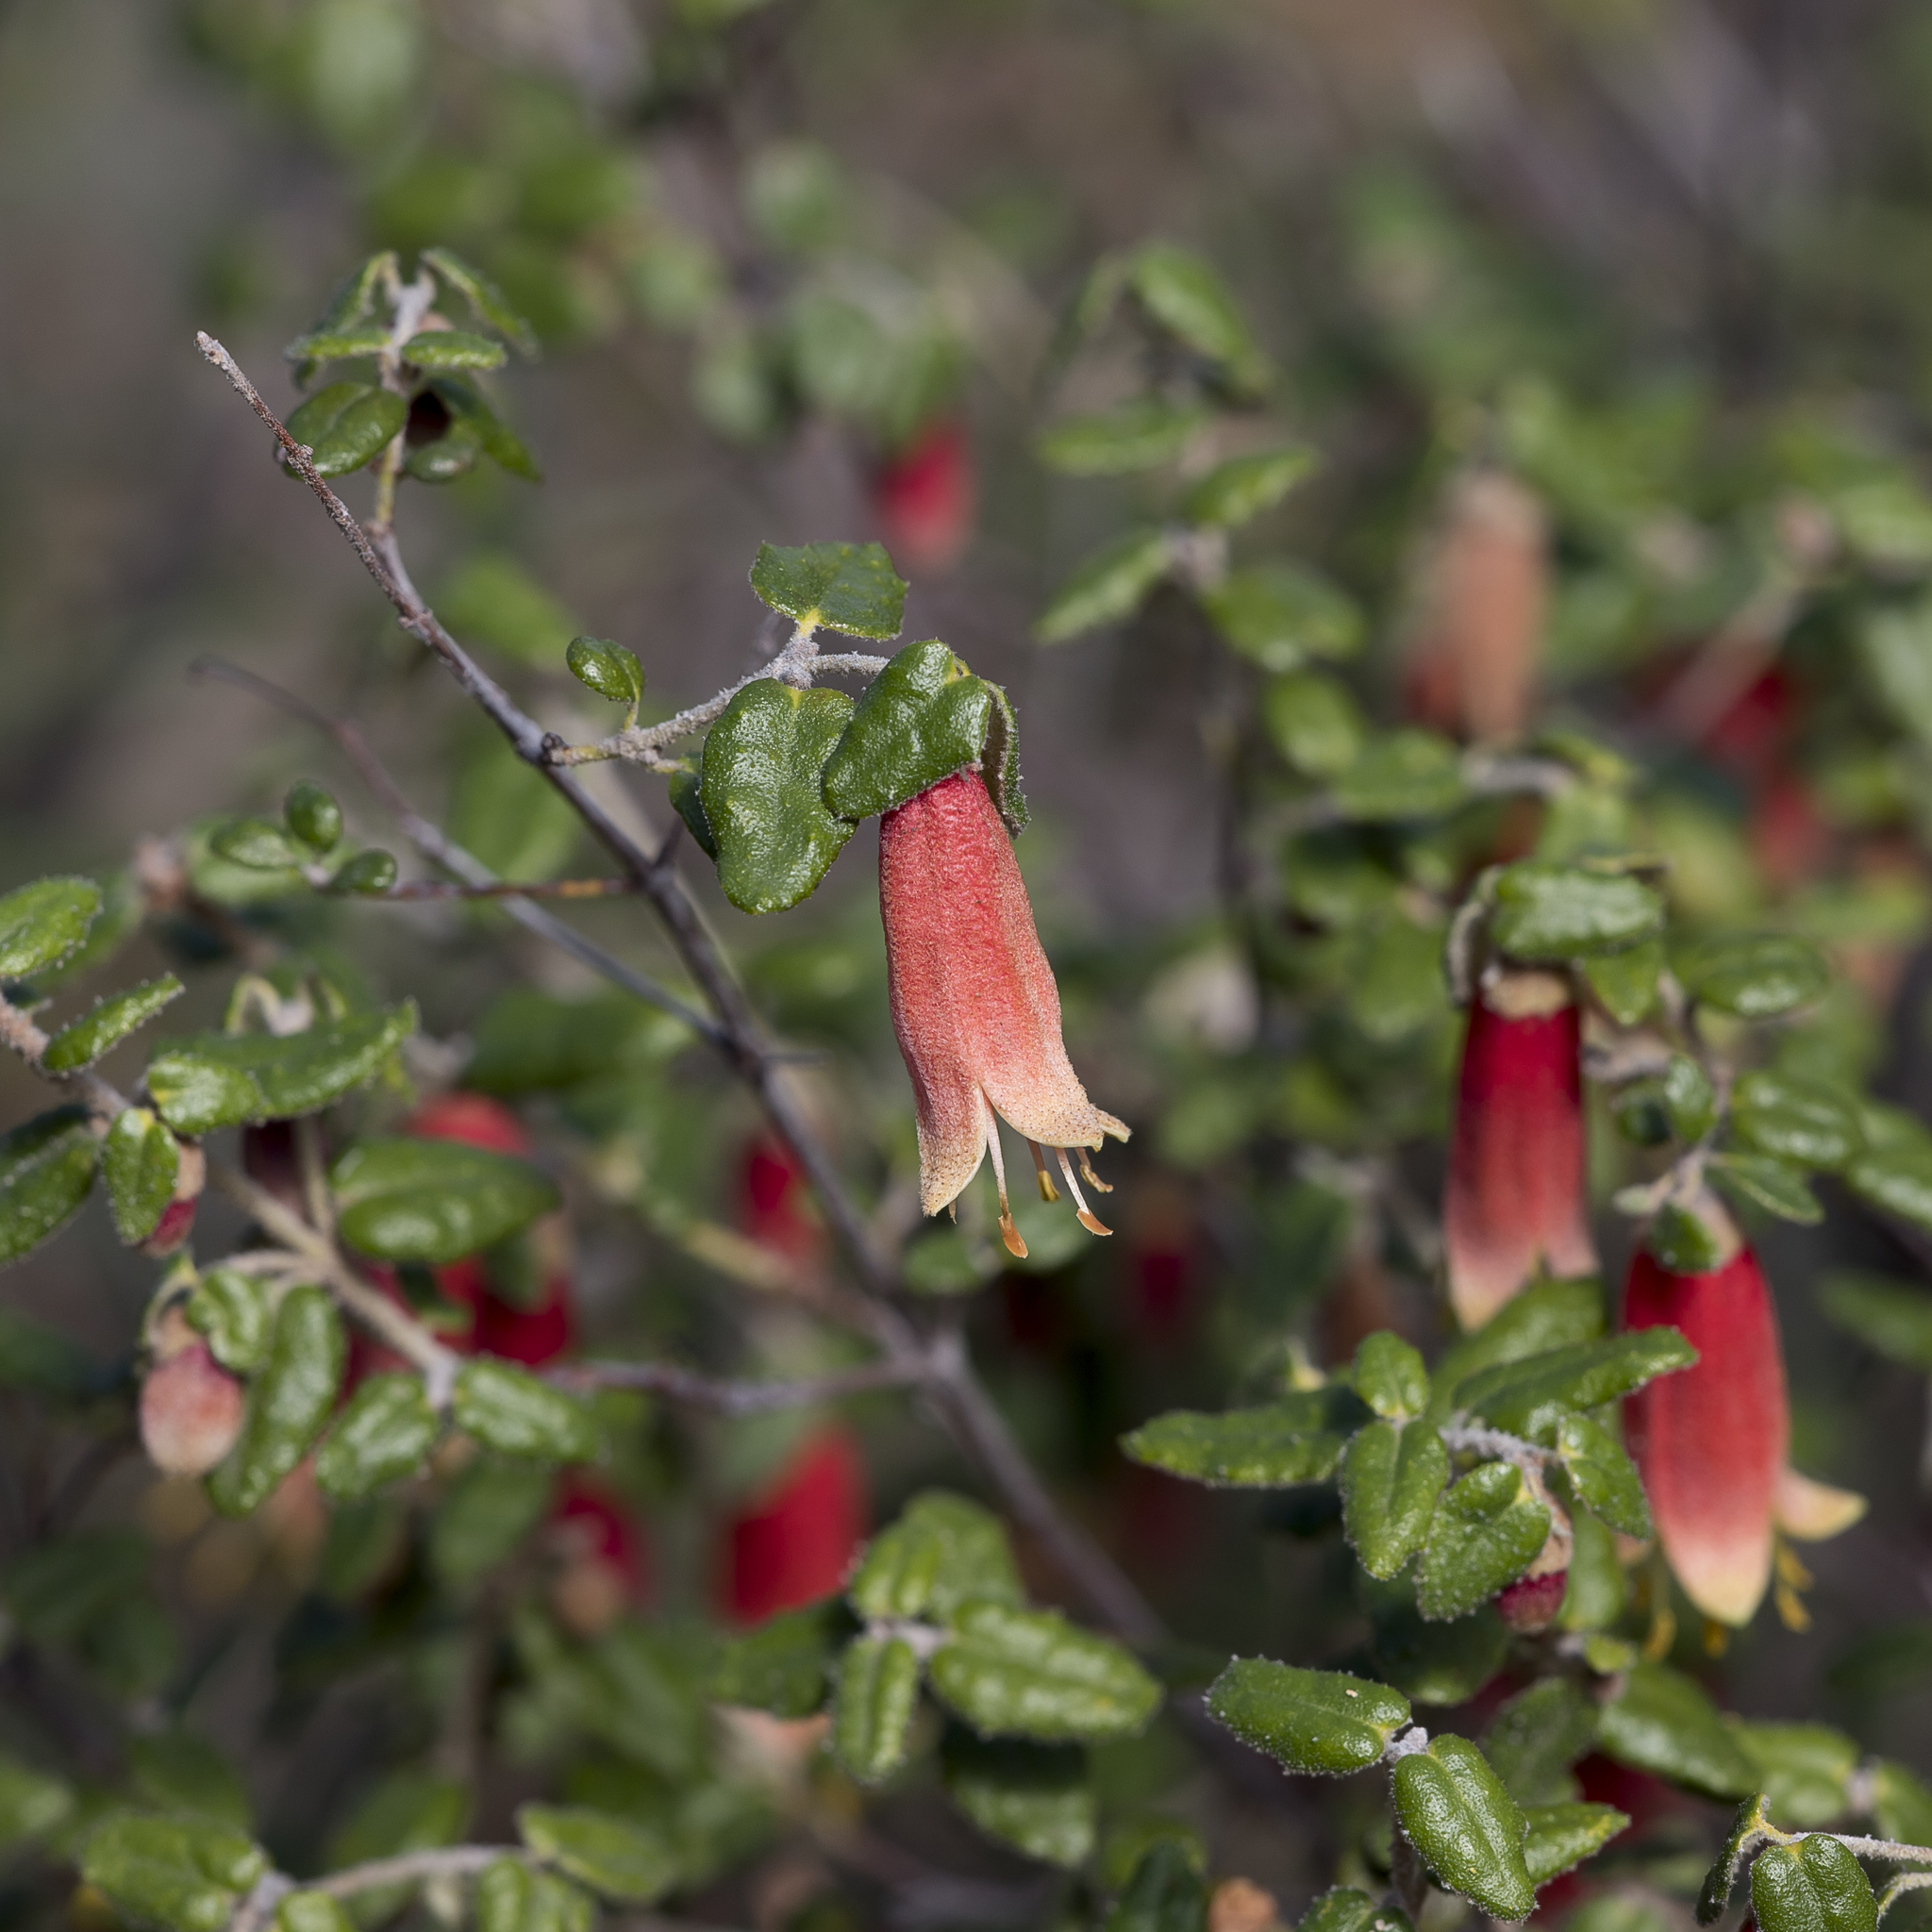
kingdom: Plantae
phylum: Tracheophyta
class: Magnoliopsida
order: Sapindales
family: Rutaceae
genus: Correa
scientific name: Correa reflexa
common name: Common correa
